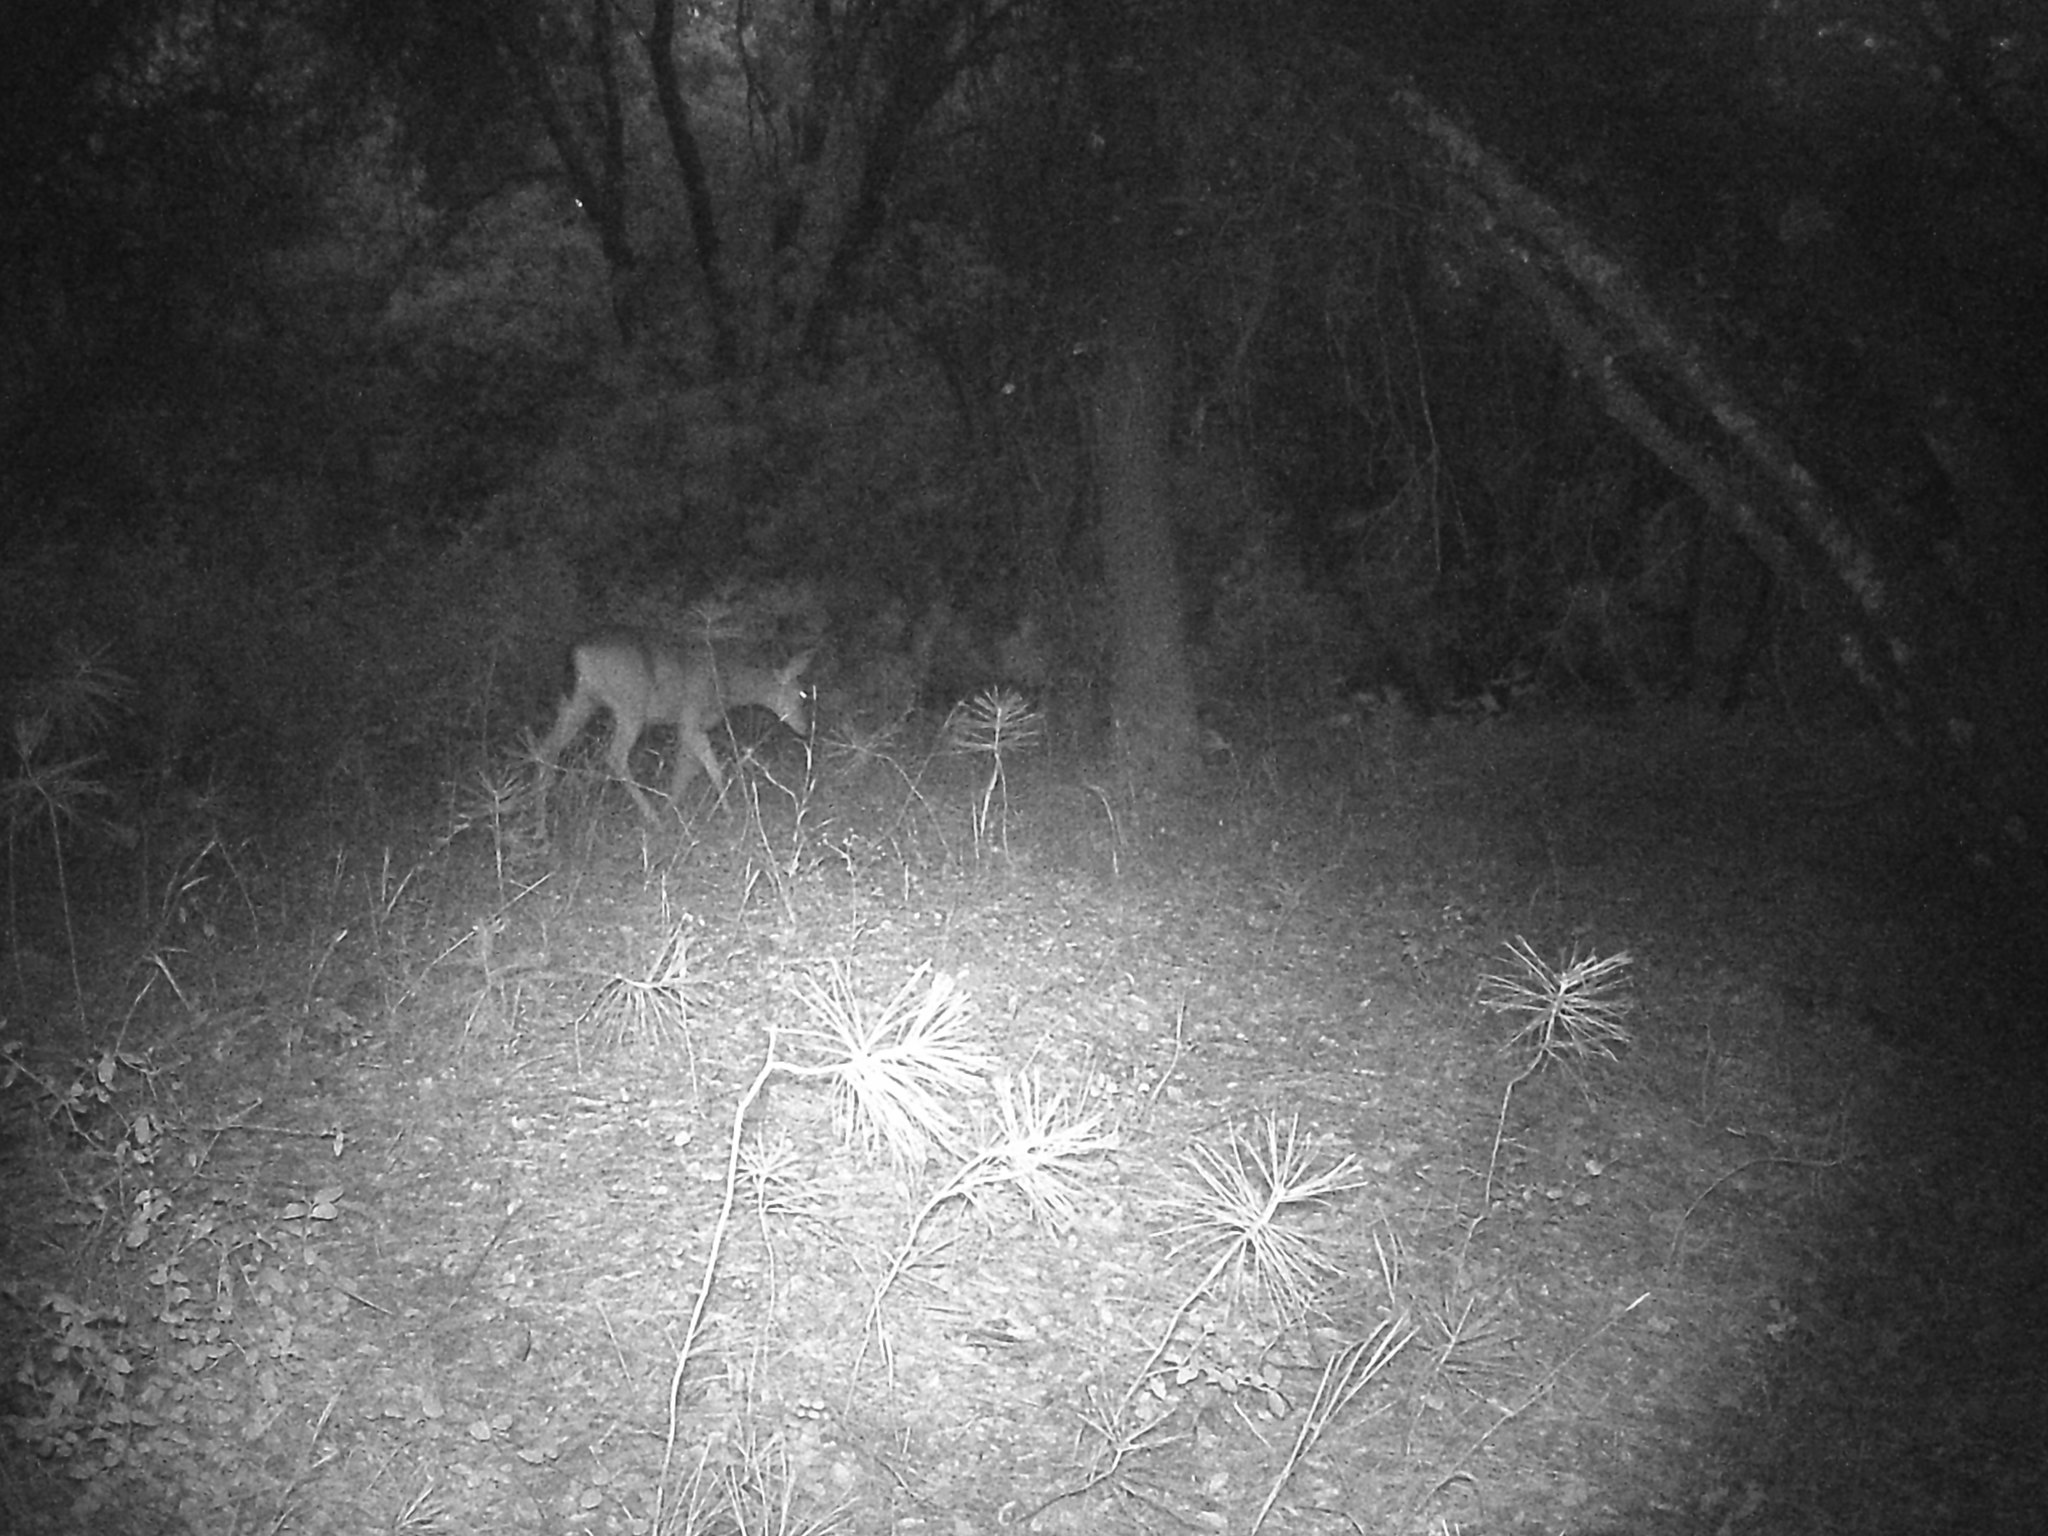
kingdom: Animalia
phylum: Chordata
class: Mammalia
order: Artiodactyla
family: Cervidae
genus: Odocoileus
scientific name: Odocoileus hemionus
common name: Mule deer
